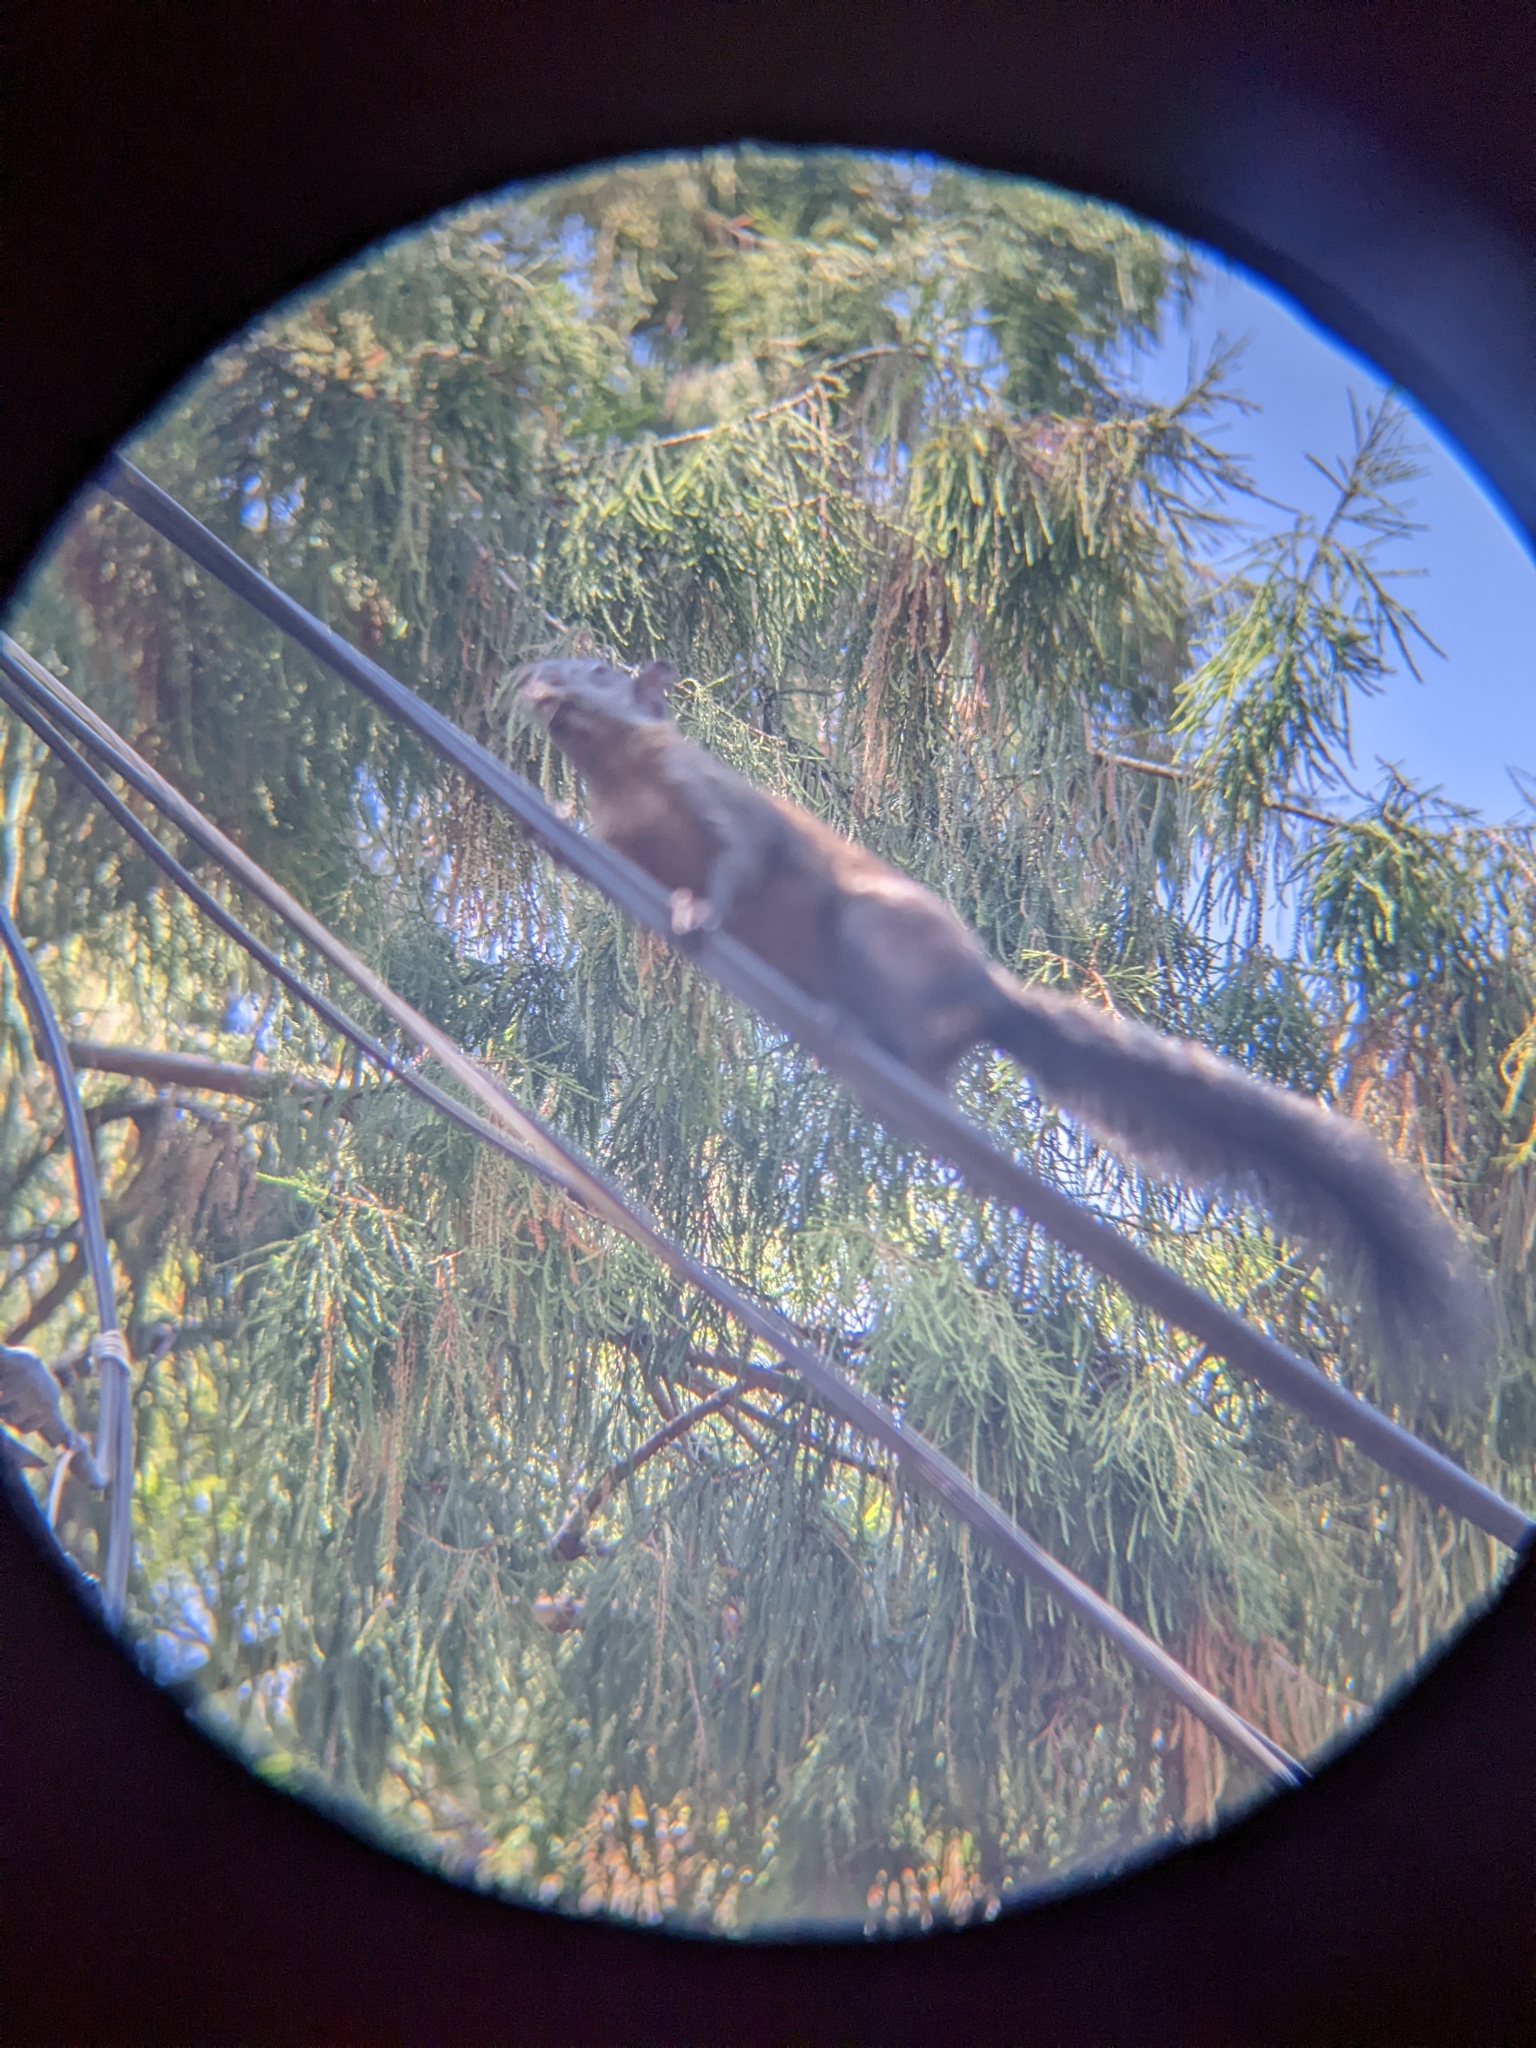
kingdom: Animalia
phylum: Chordata
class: Mammalia
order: Rodentia
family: Sciuridae
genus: Sciurus
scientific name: Sciurus aureogaster
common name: Red-bellied squirrel
